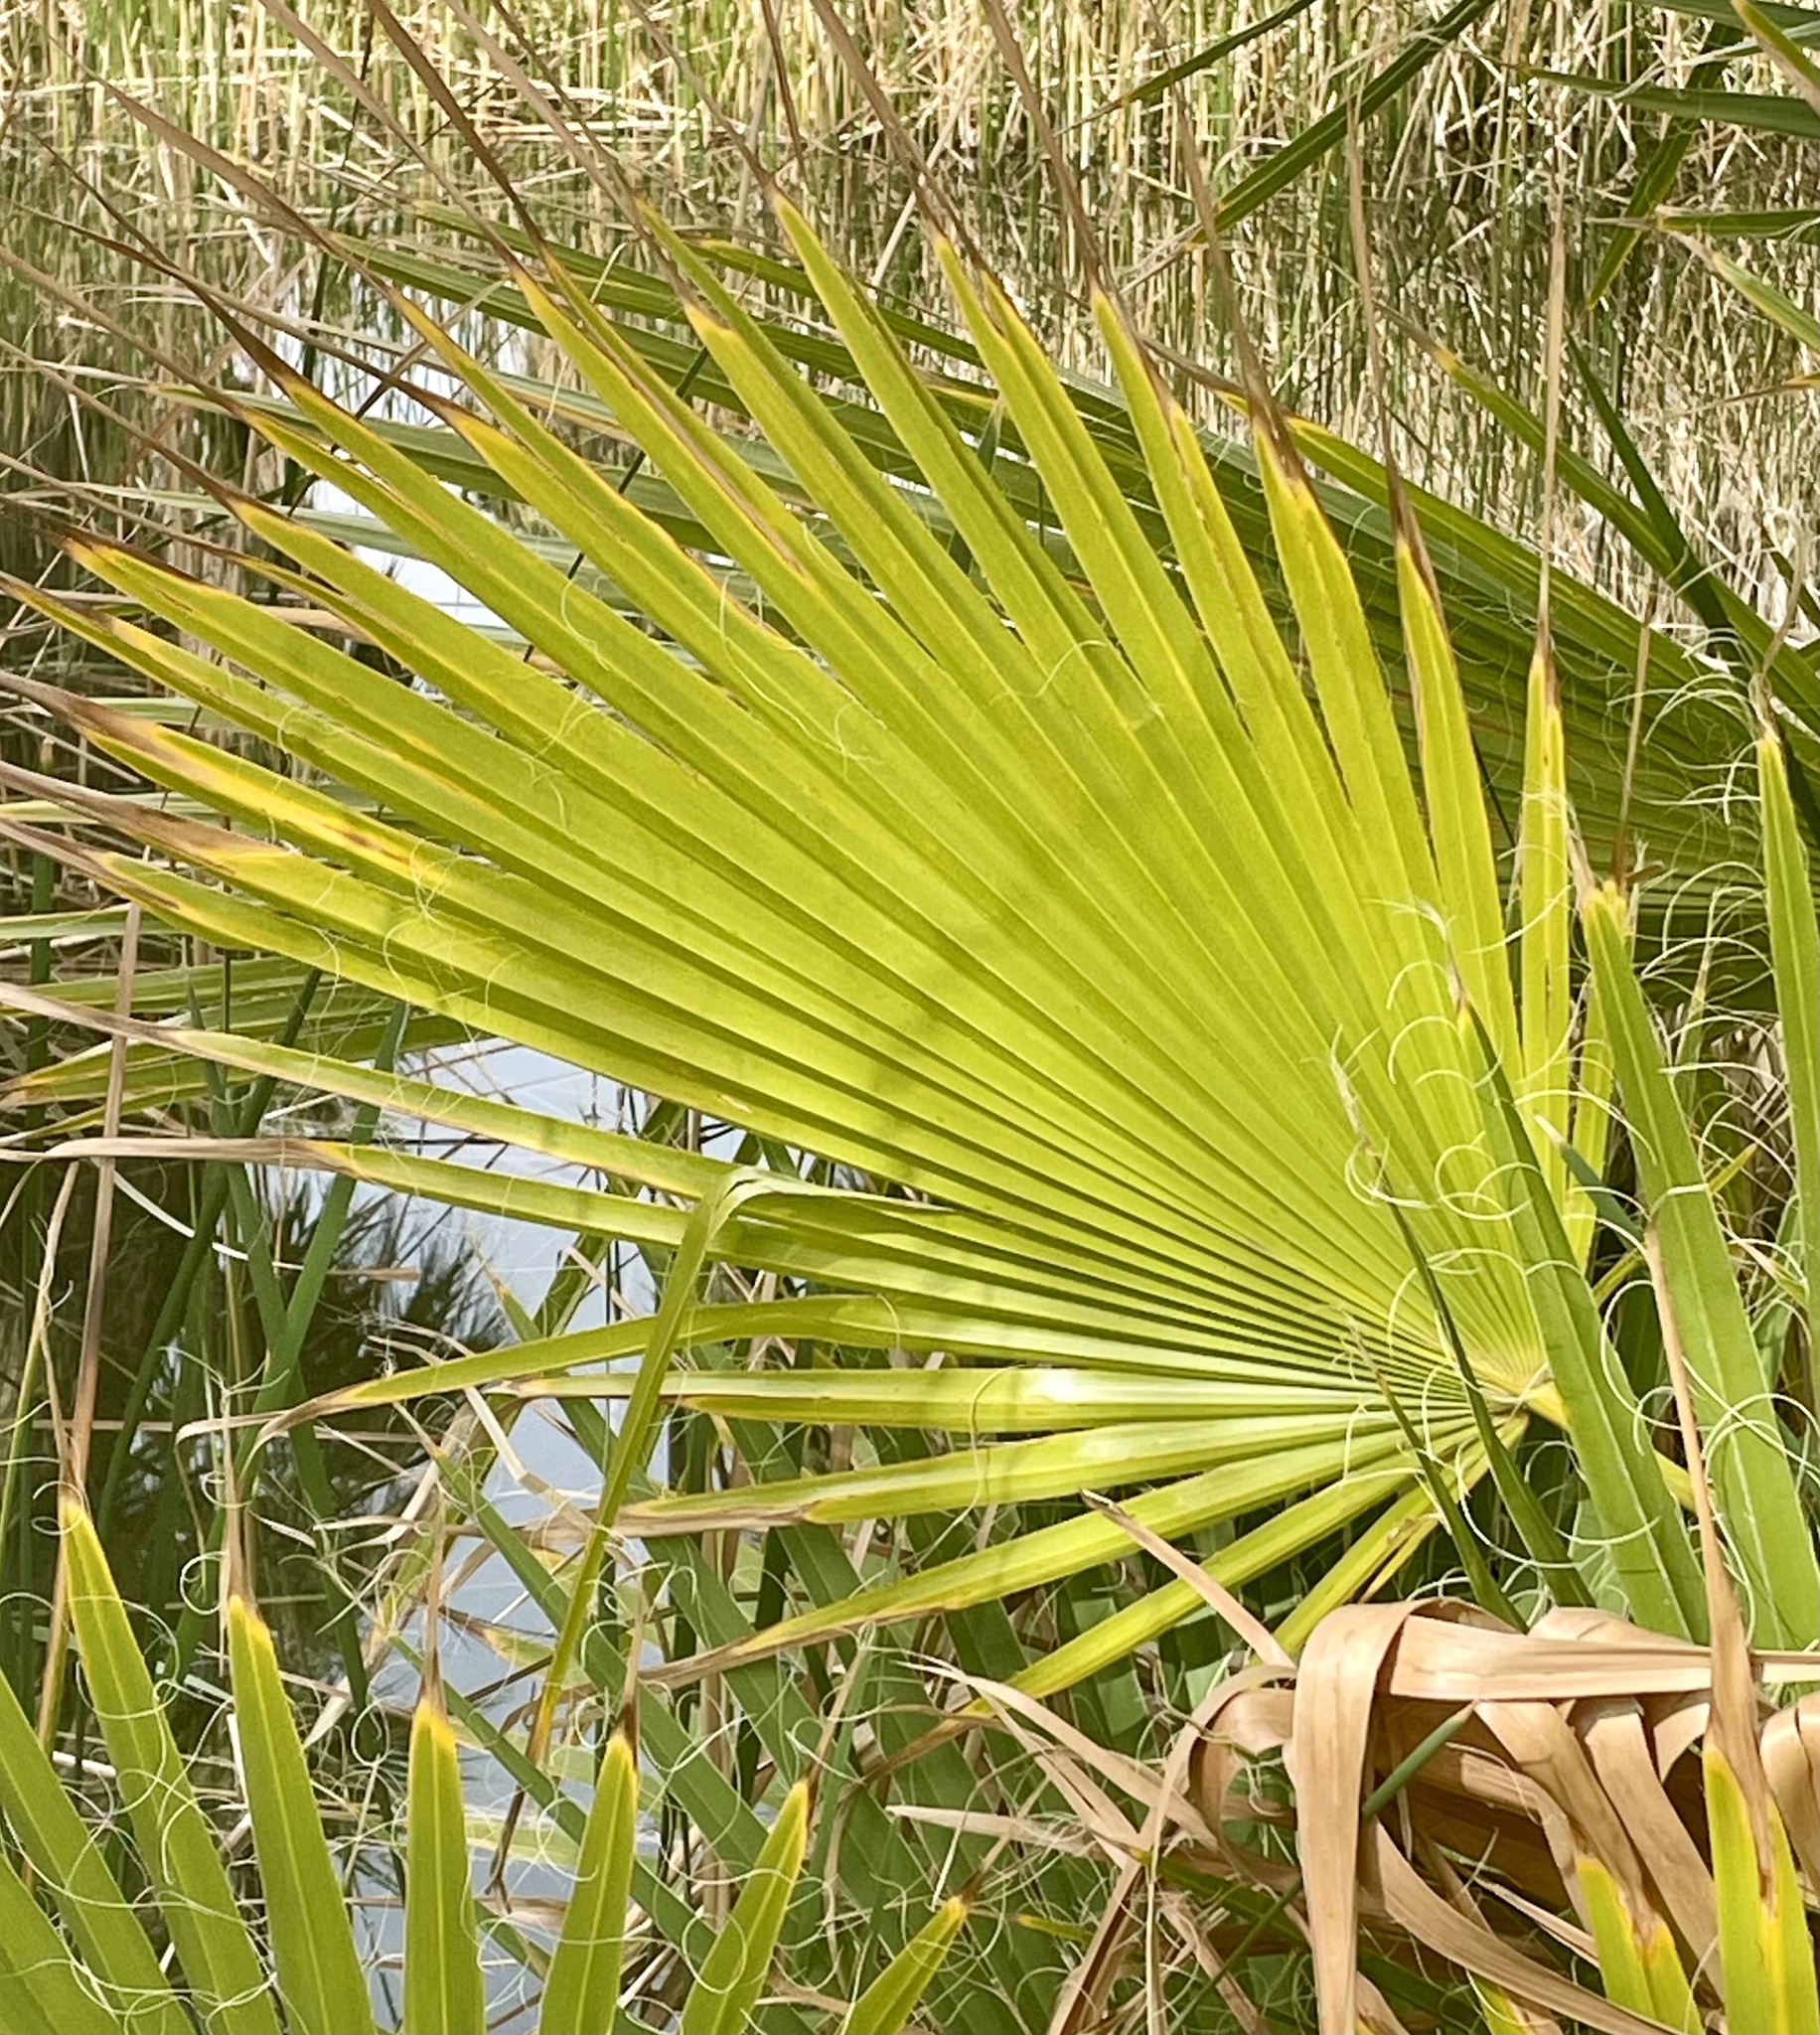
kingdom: Plantae
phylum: Tracheophyta
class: Liliopsida
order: Arecales
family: Arecaceae
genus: Washingtonia
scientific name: Washingtonia filifera
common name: California fan palm
